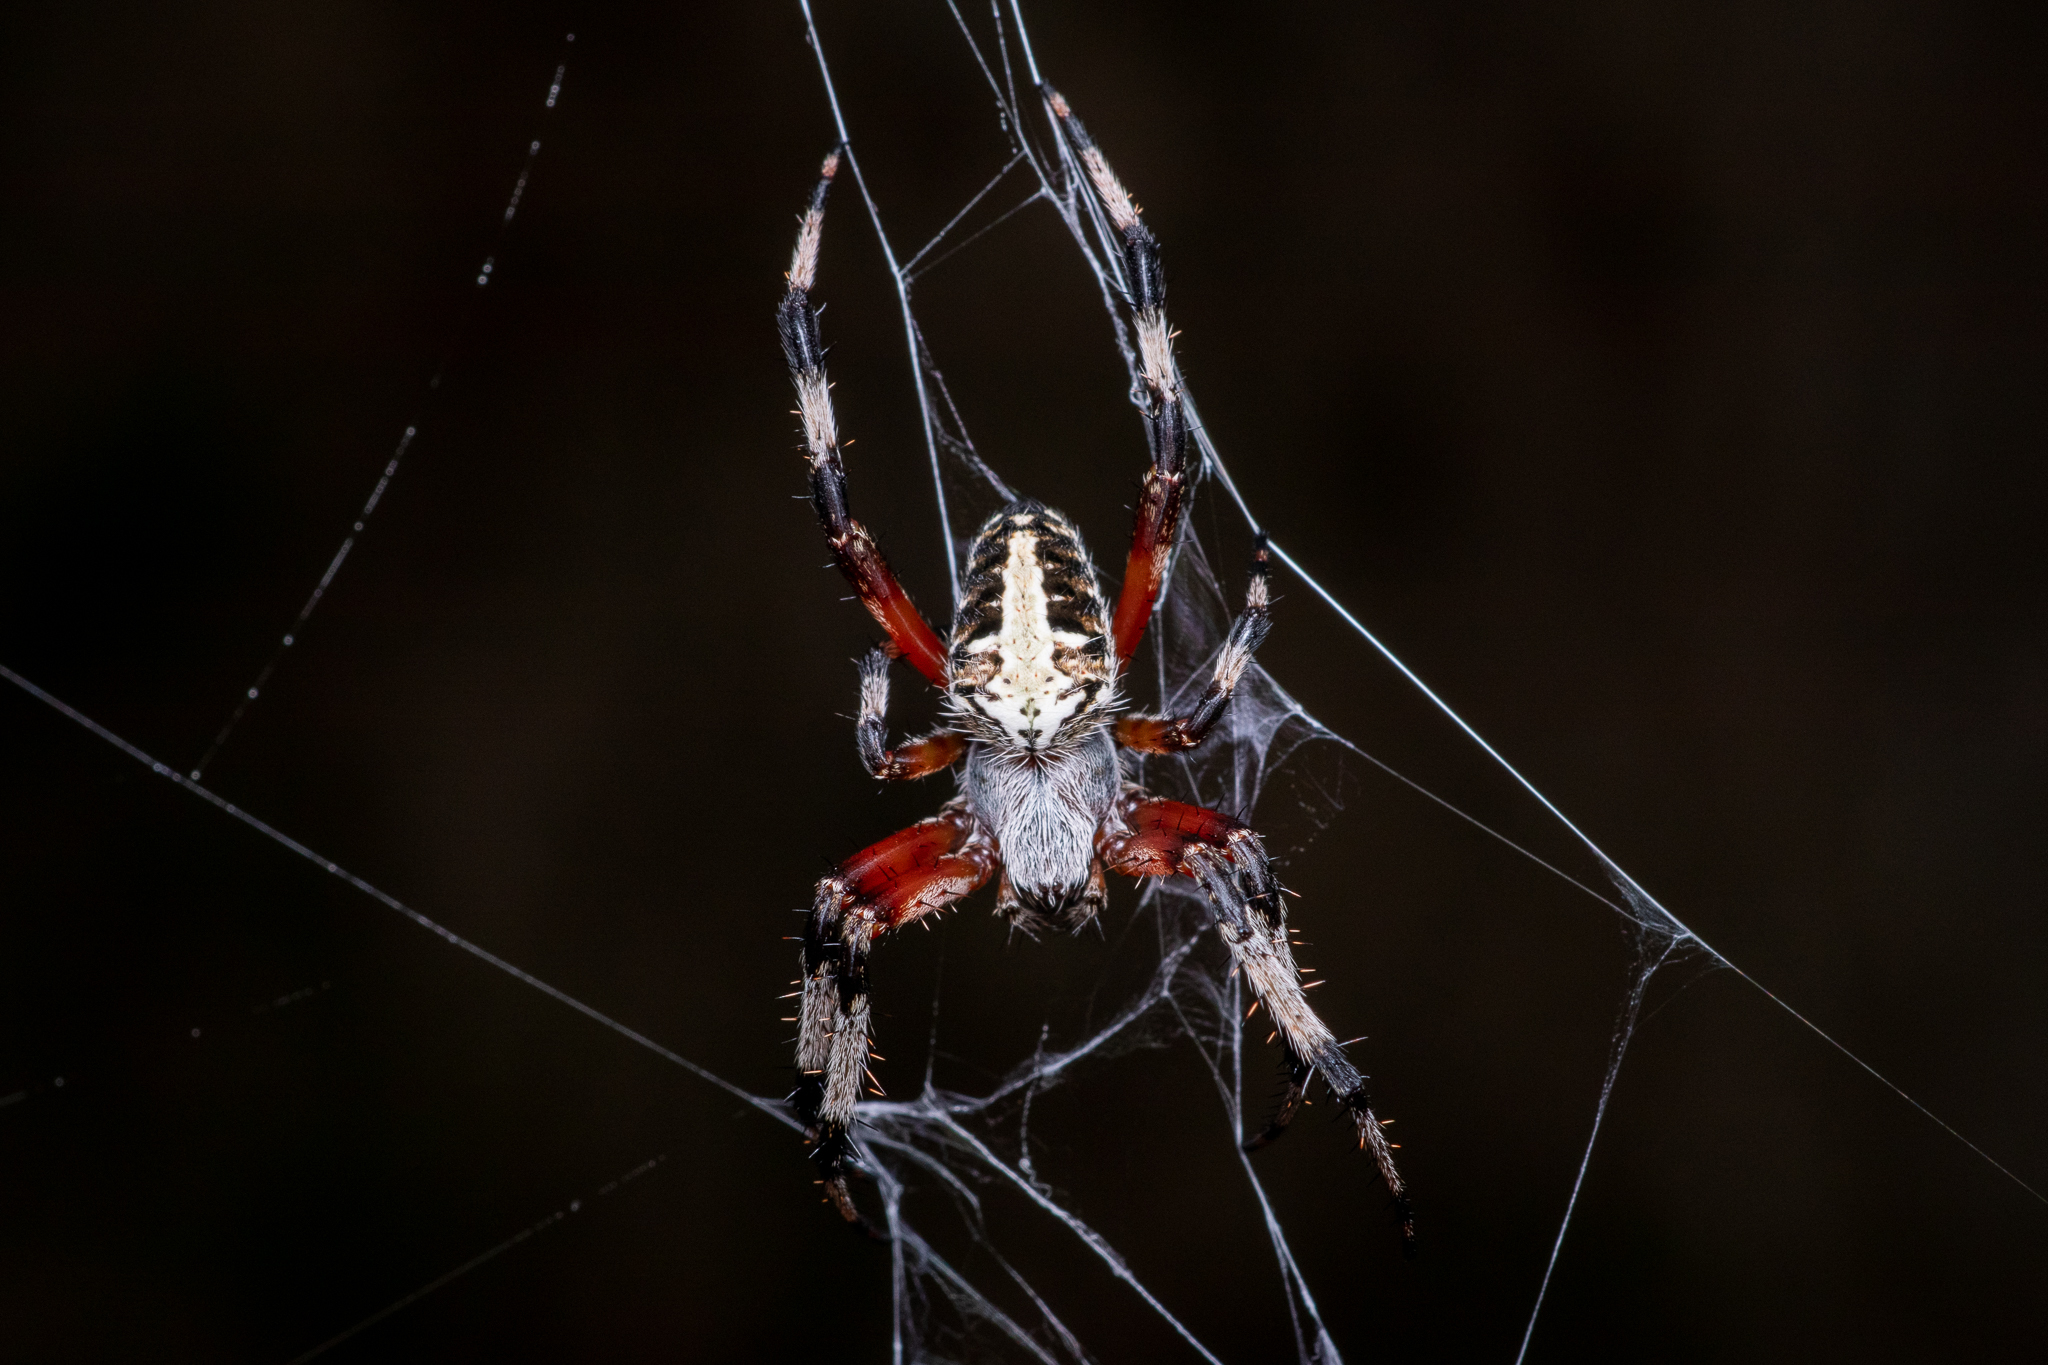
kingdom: Animalia
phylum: Arthropoda
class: Arachnida
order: Araneae
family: Araneidae
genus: Neoscona
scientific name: Neoscona domiciliorum
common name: Red-femured spotted orbweaver
